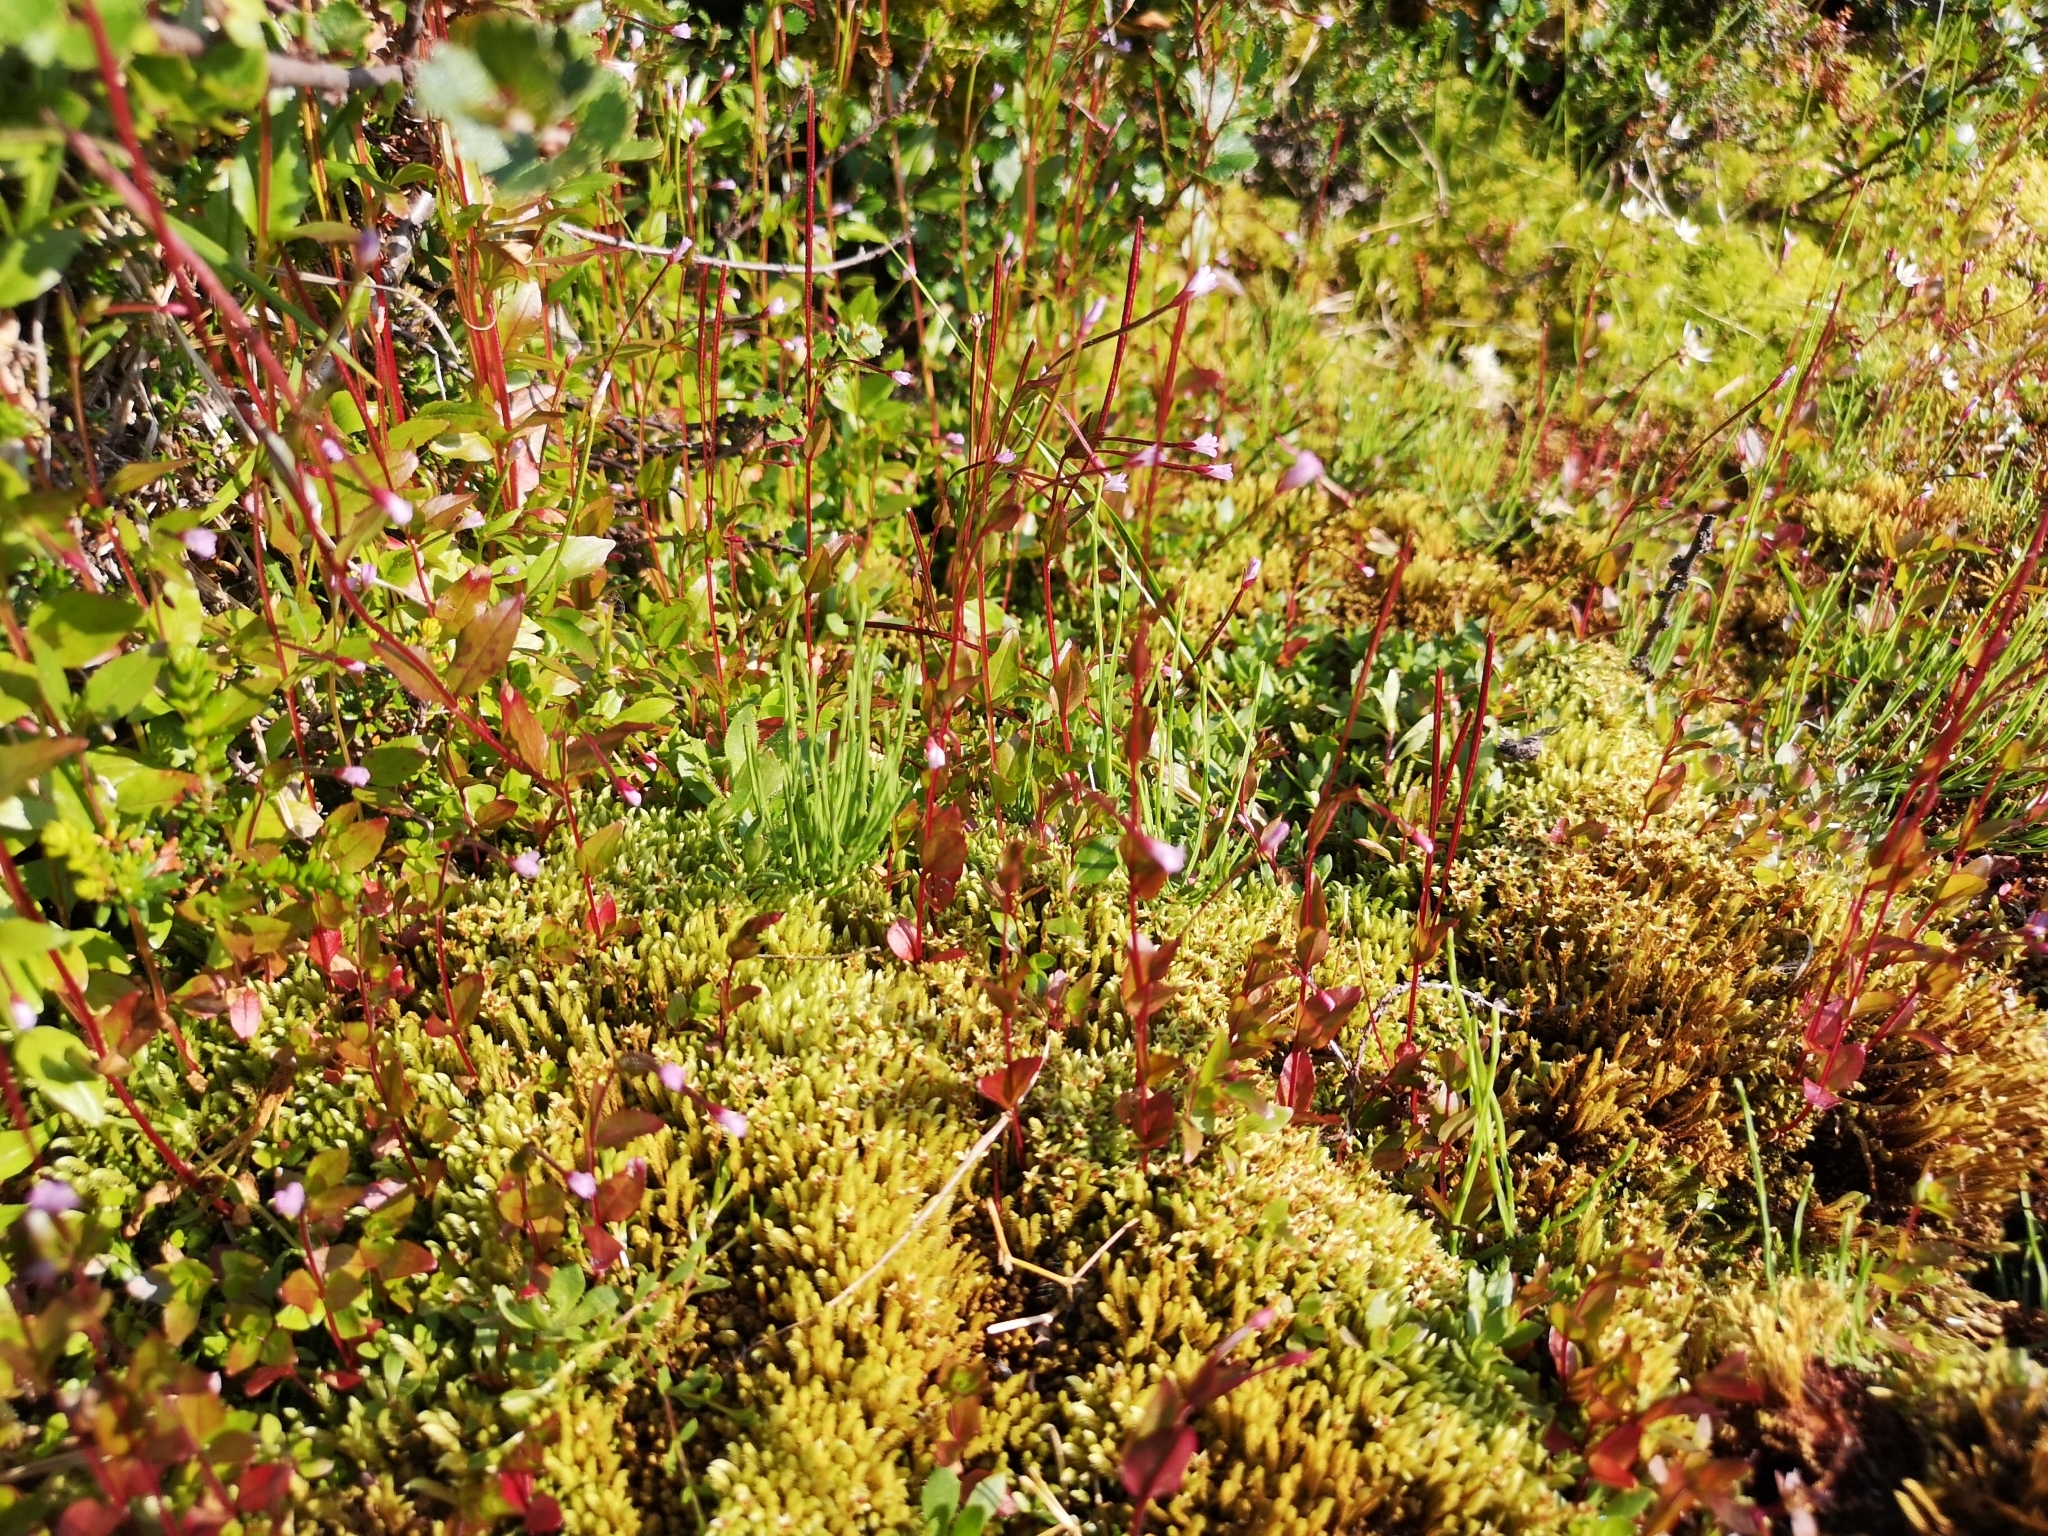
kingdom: Plantae
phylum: Tracheophyta
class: Magnoliopsida
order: Myrtales
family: Onagraceae
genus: Epilobium
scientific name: Epilobium hornemannii
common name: Hornemann's willowherb
